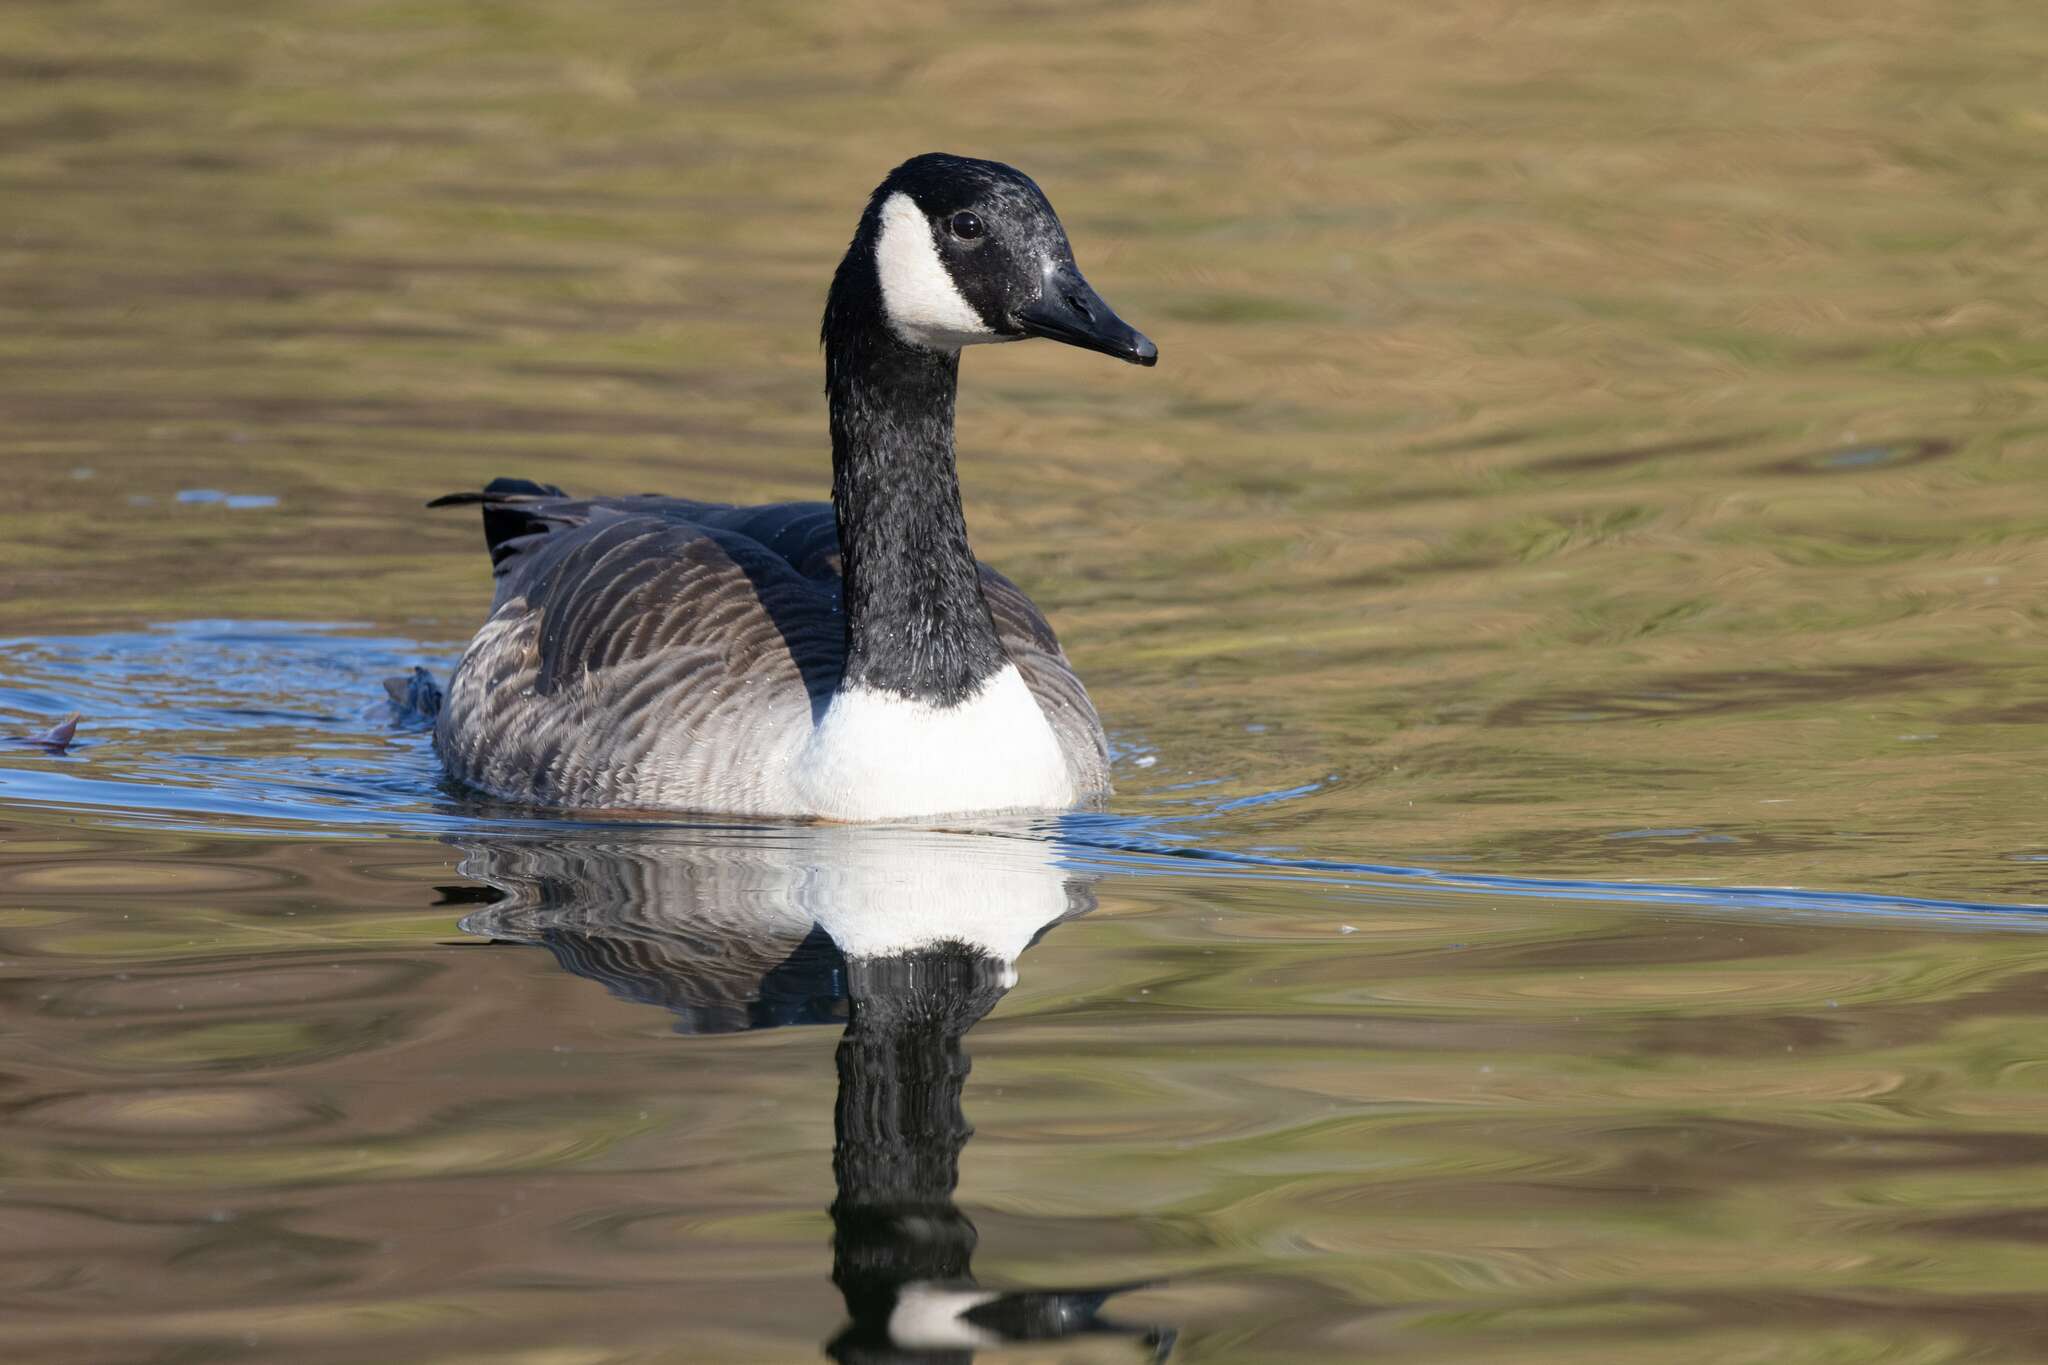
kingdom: Animalia
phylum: Chordata
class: Aves
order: Anseriformes
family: Anatidae
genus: Branta
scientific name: Branta canadensis
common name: Canada goose
